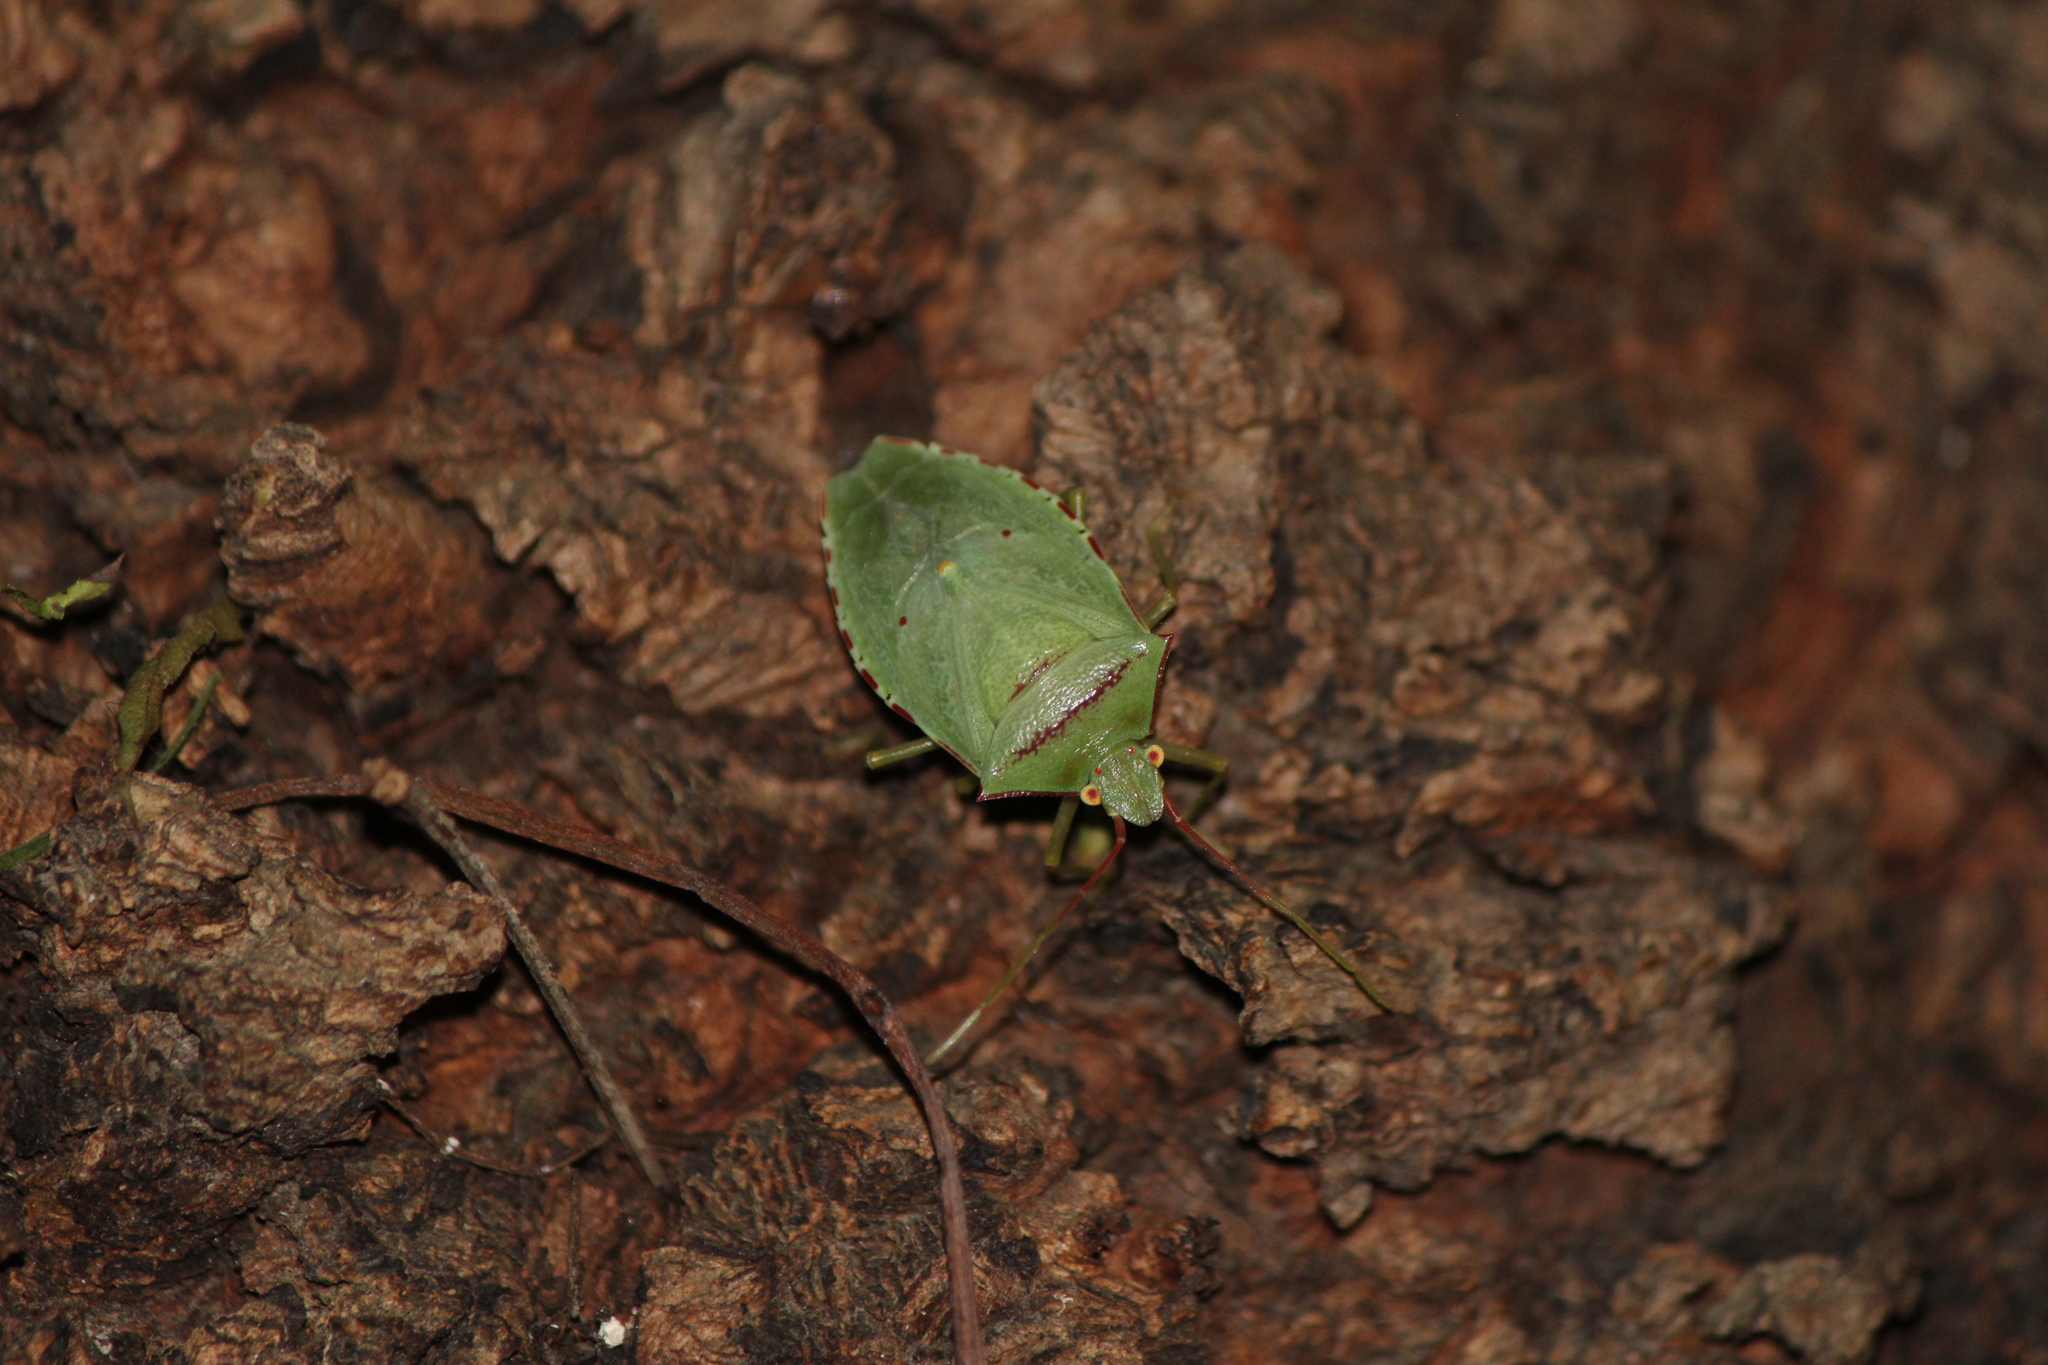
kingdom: Animalia
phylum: Arthropoda
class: Insecta
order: Hemiptera
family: Pentatomidae
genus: Chlorocoris
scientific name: Chlorocoris
